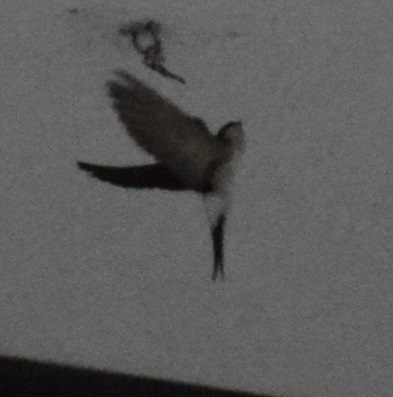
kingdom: Animalia
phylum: Chordata
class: Aves
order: Passeriformes
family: Hirundinidae
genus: Delichon
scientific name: Delichon urbicum
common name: Common house martin
